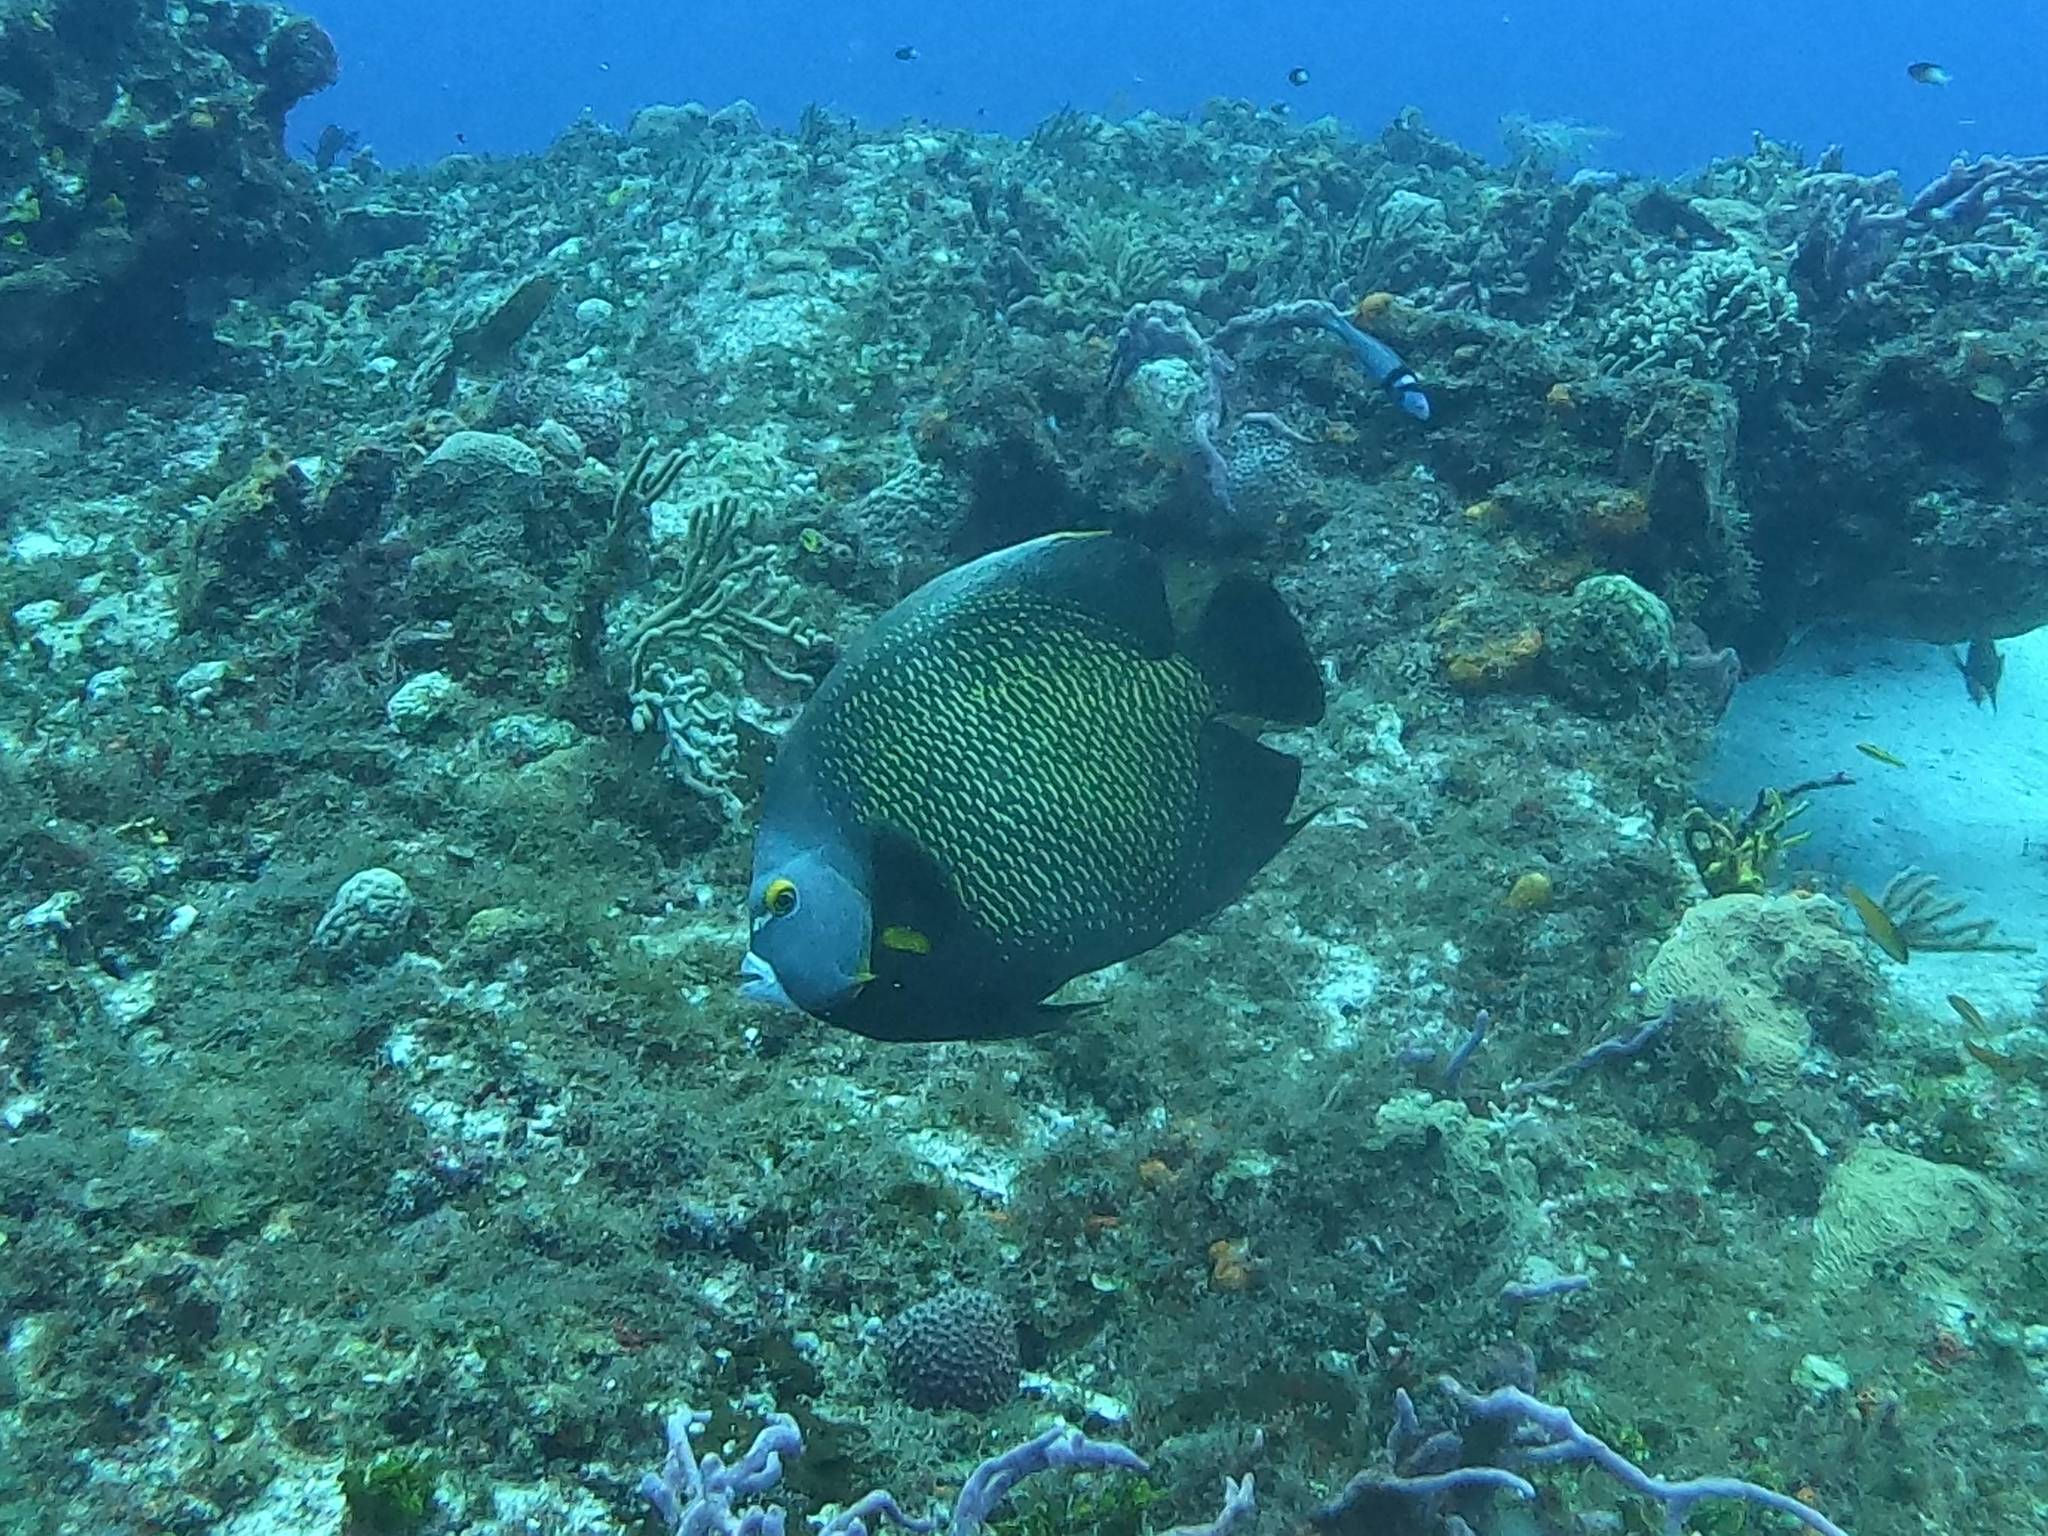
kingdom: Animalia
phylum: Chordata
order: Perciformes
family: Pomacanthidae
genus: Pomacanthus
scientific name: Pomacanthus paru
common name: French angelfish
